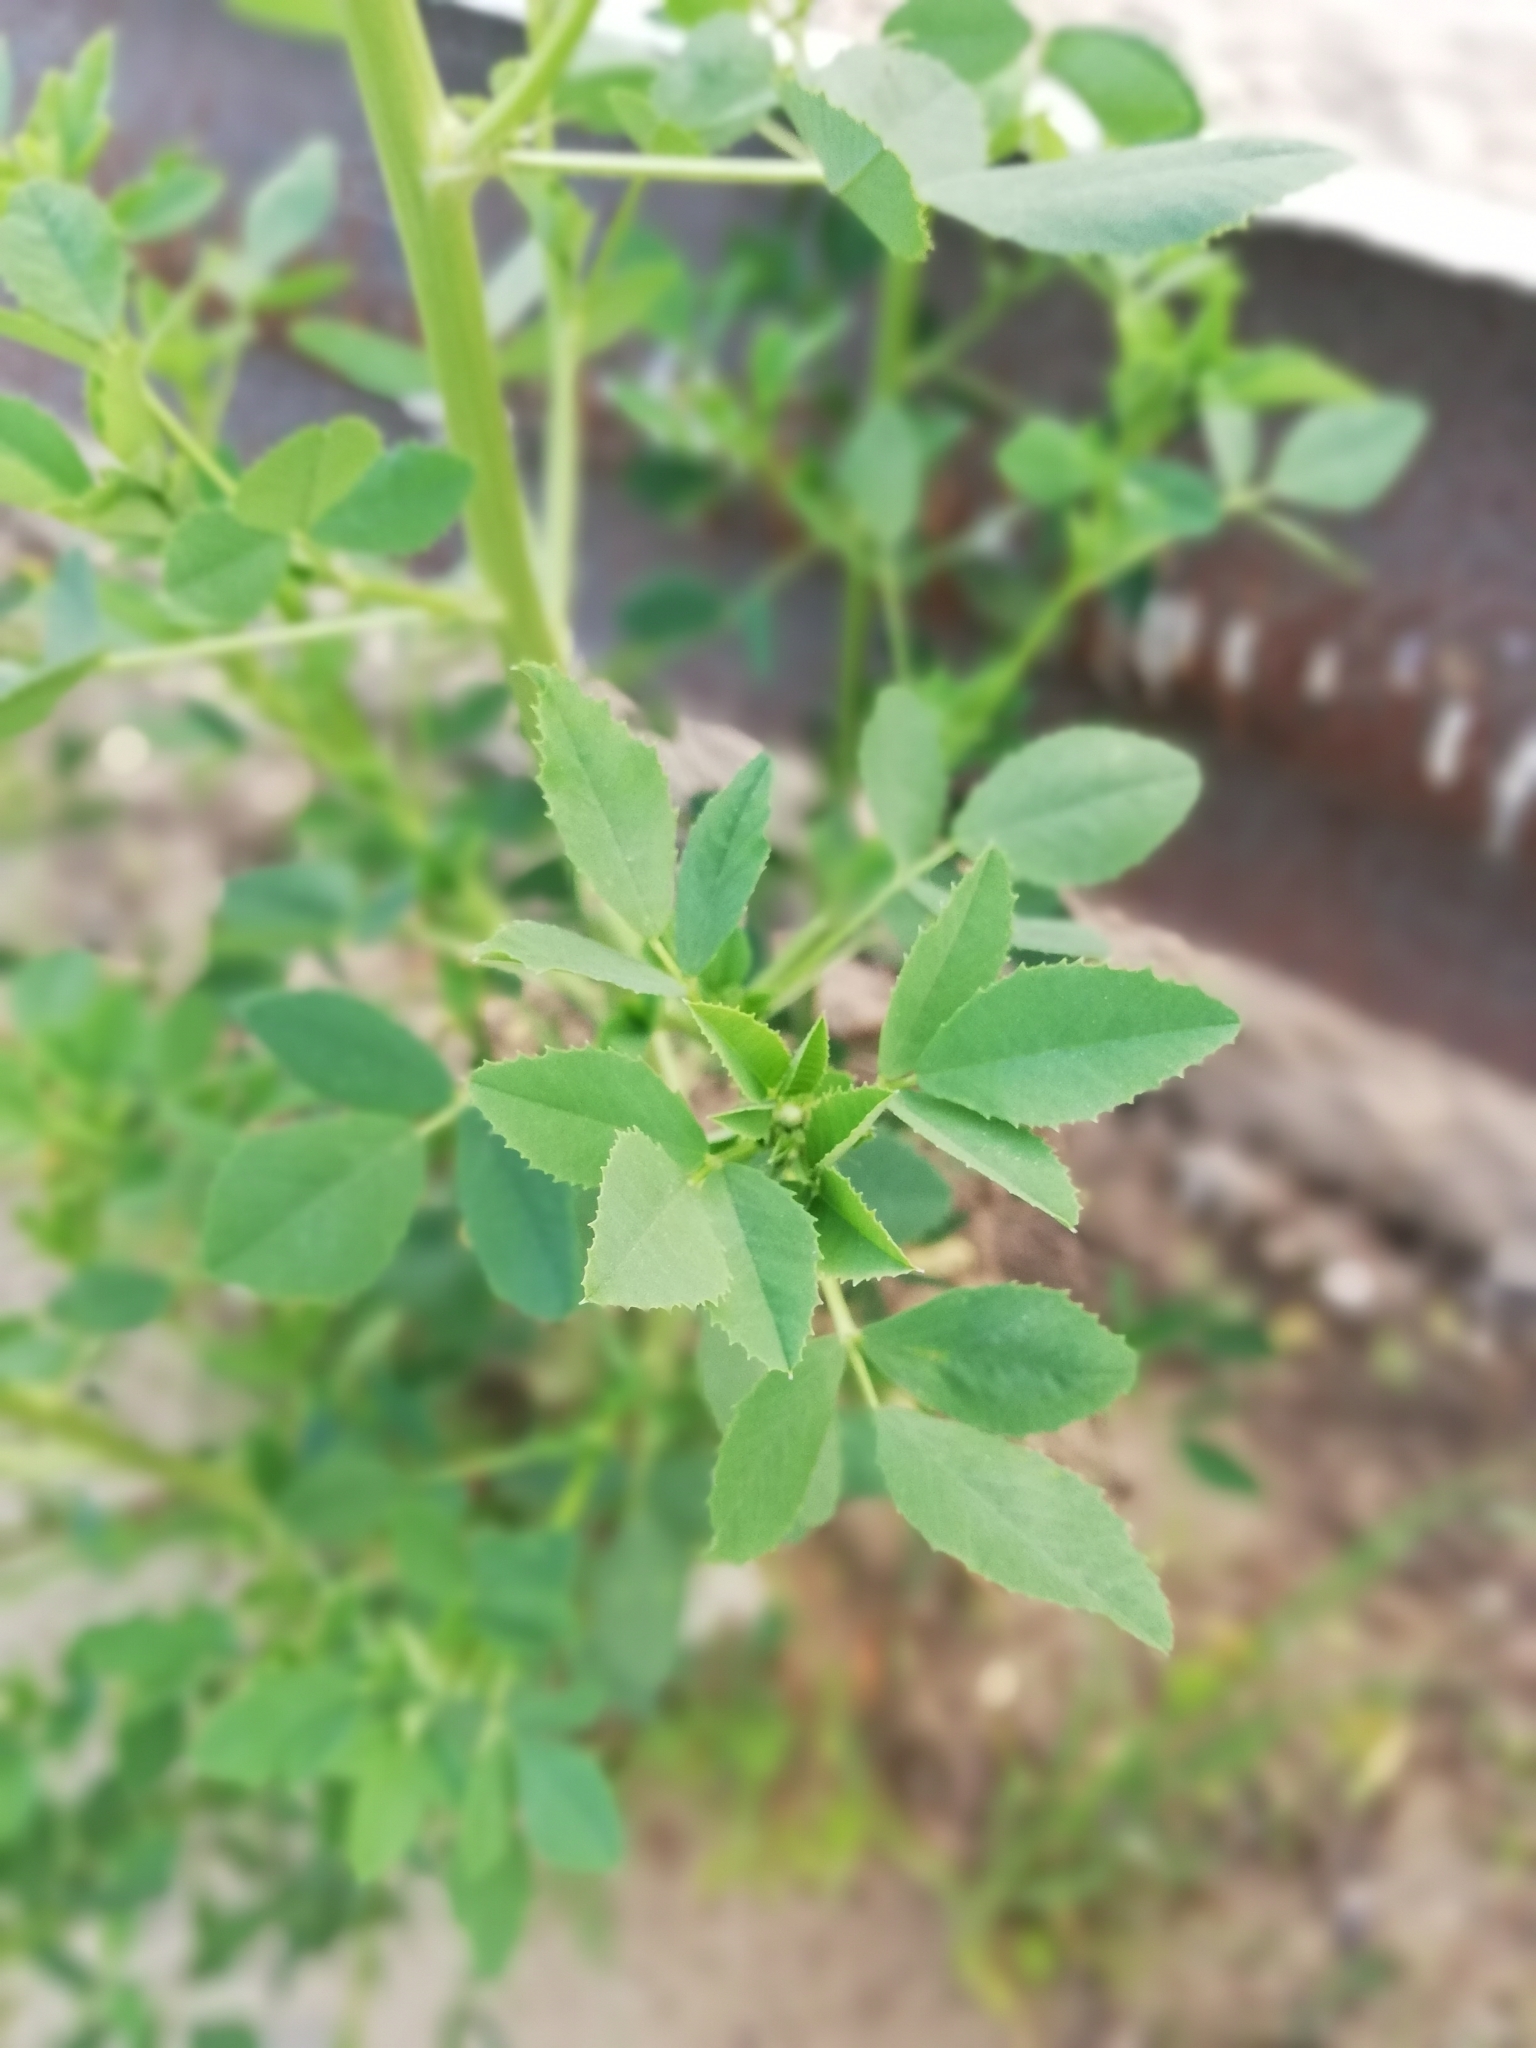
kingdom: Plantae
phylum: Tracheophyta
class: Magnoliopsida
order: Fabales
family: Fabaceae
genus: Melilotus
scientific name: Melilotus
